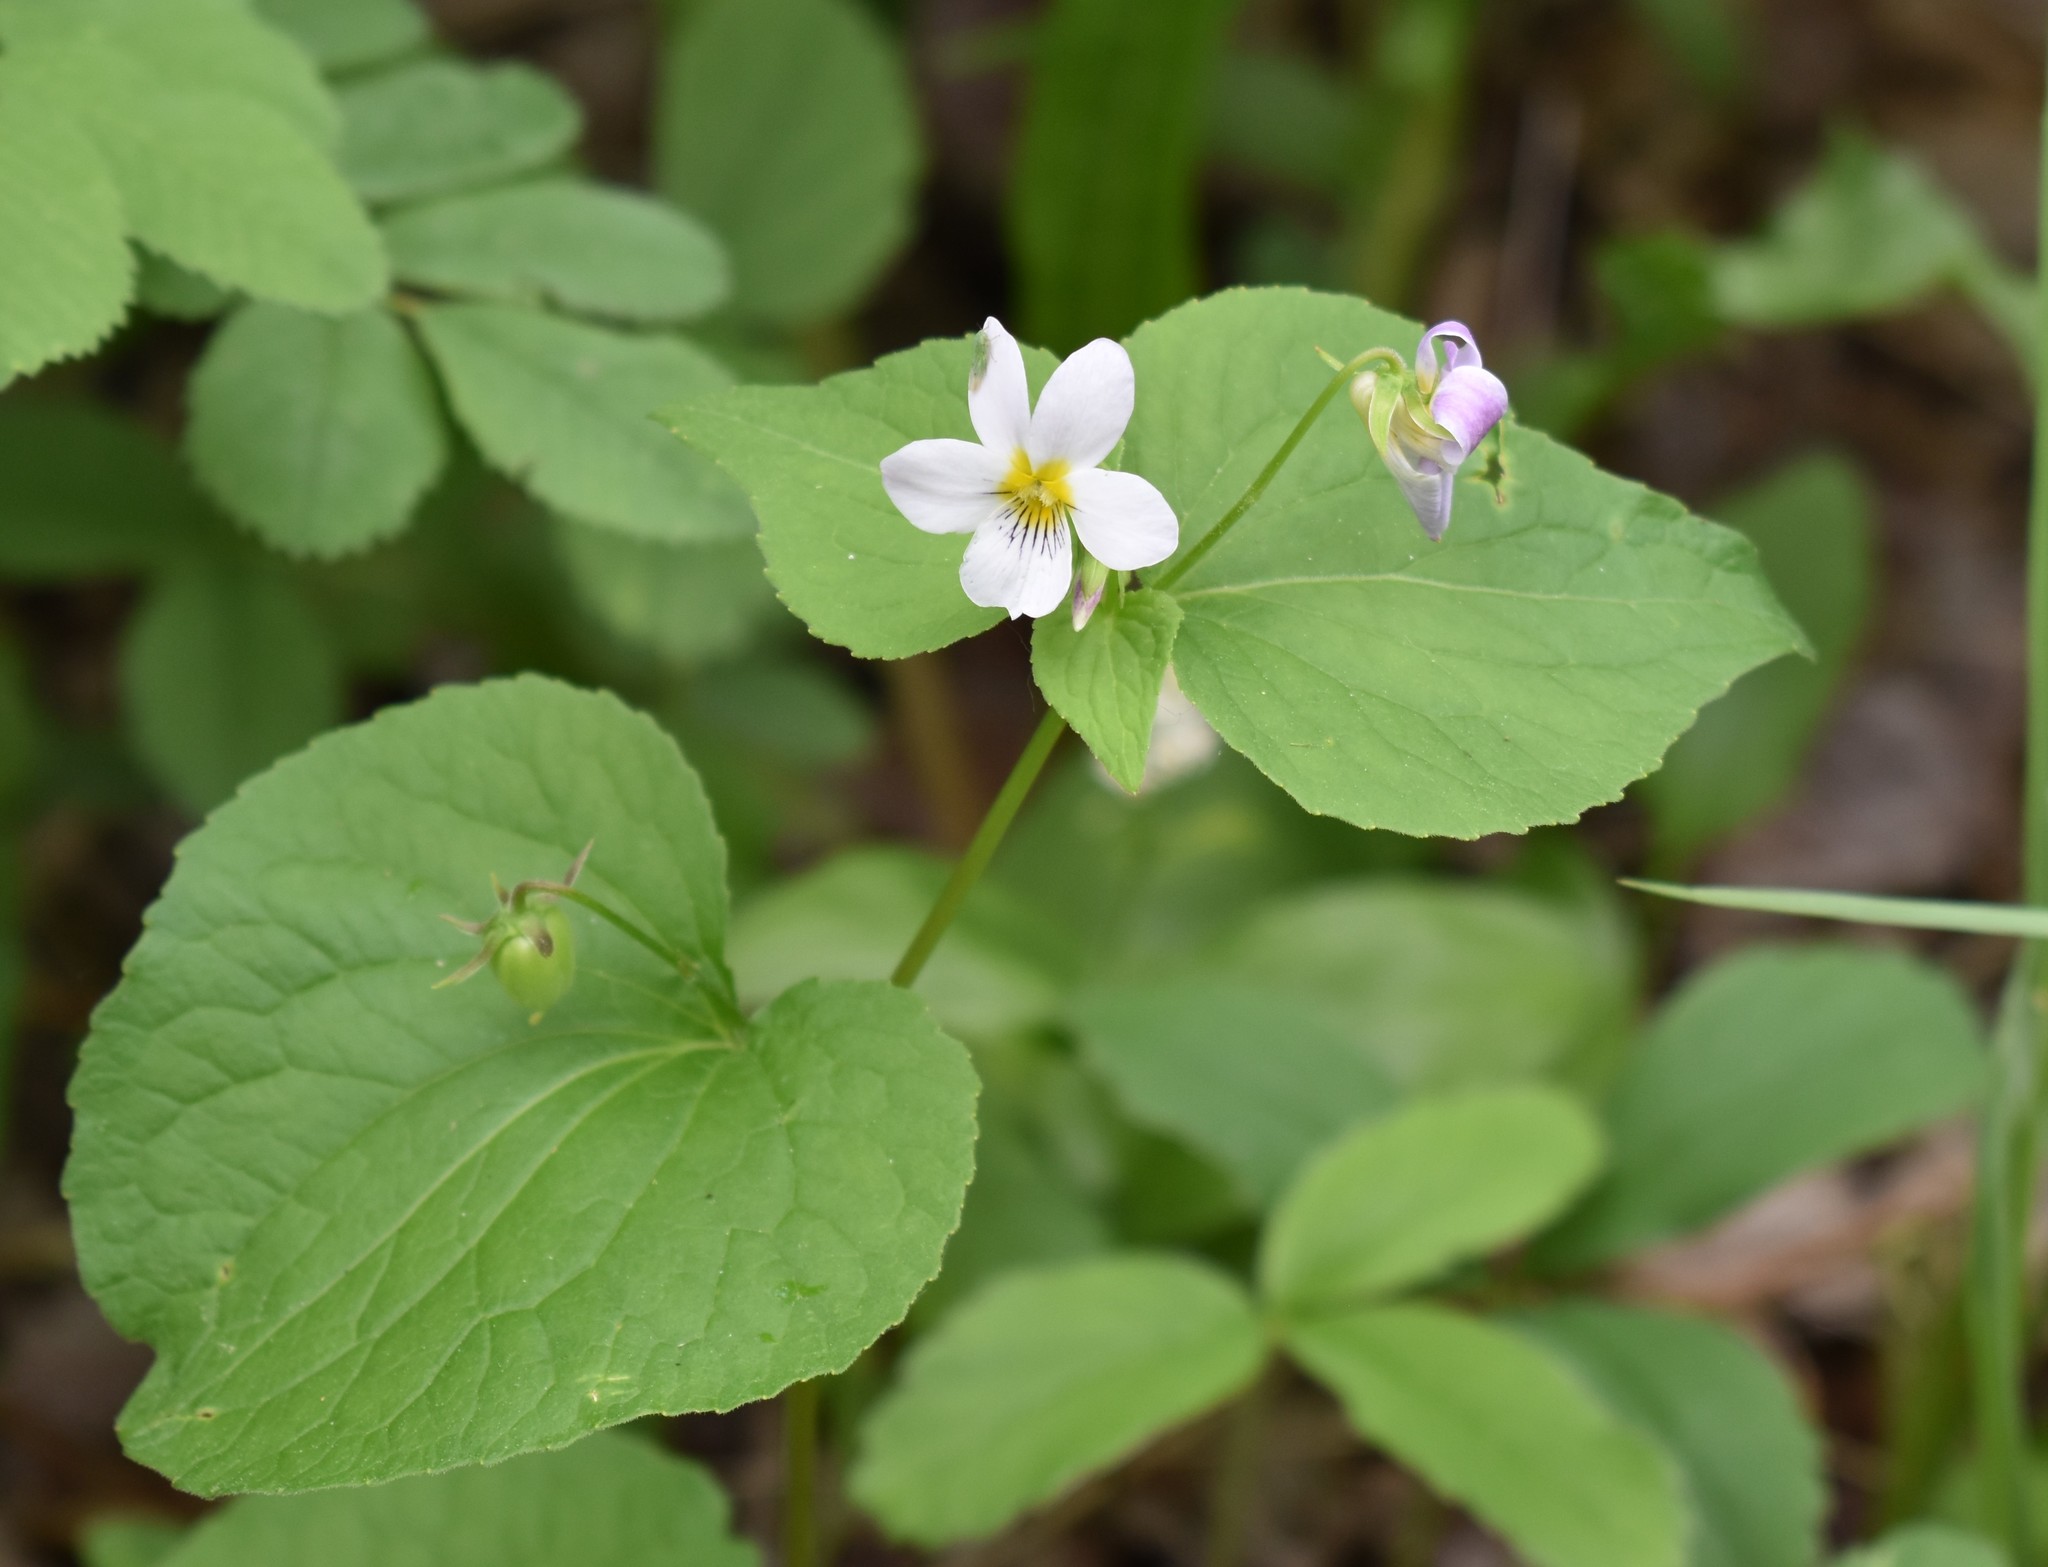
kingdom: Plantae
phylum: Tracheophyta
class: Magnoliopsida
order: Malpighiales
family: Violaceae
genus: Viola
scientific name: Viola canadensis
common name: Canada violet
